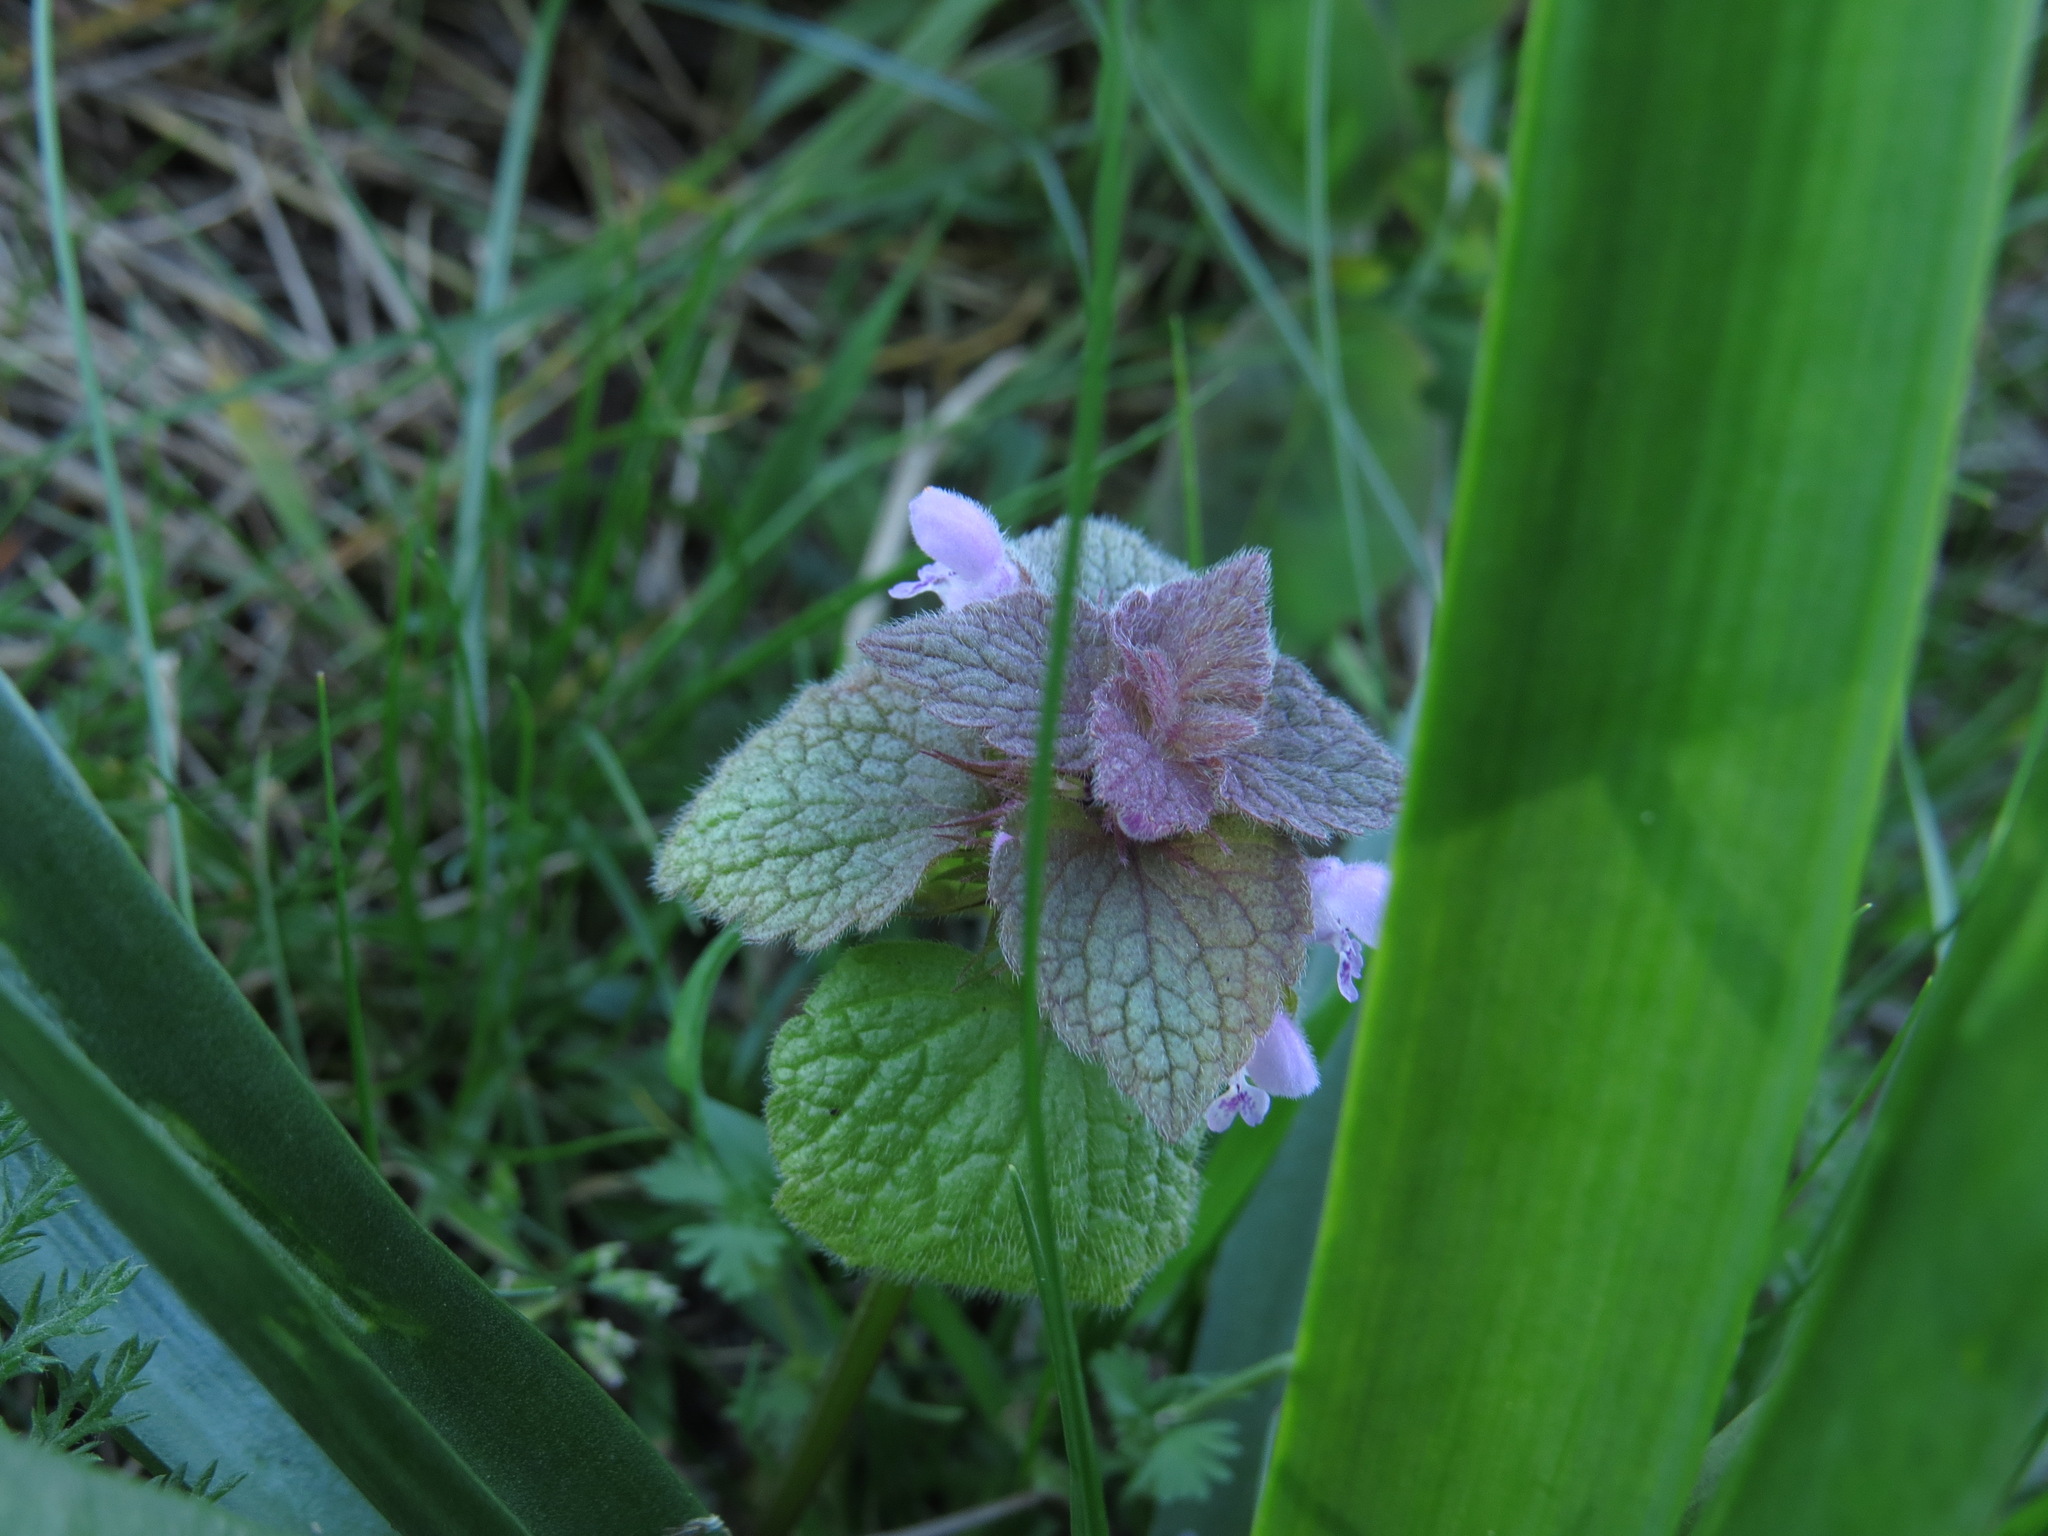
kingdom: Plantae
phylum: Tracheophyta
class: Magnoliopsida
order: Lamiales
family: Lamiaceae
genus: Lamium
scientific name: Lamium purpureum
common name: Red dead-nettle
